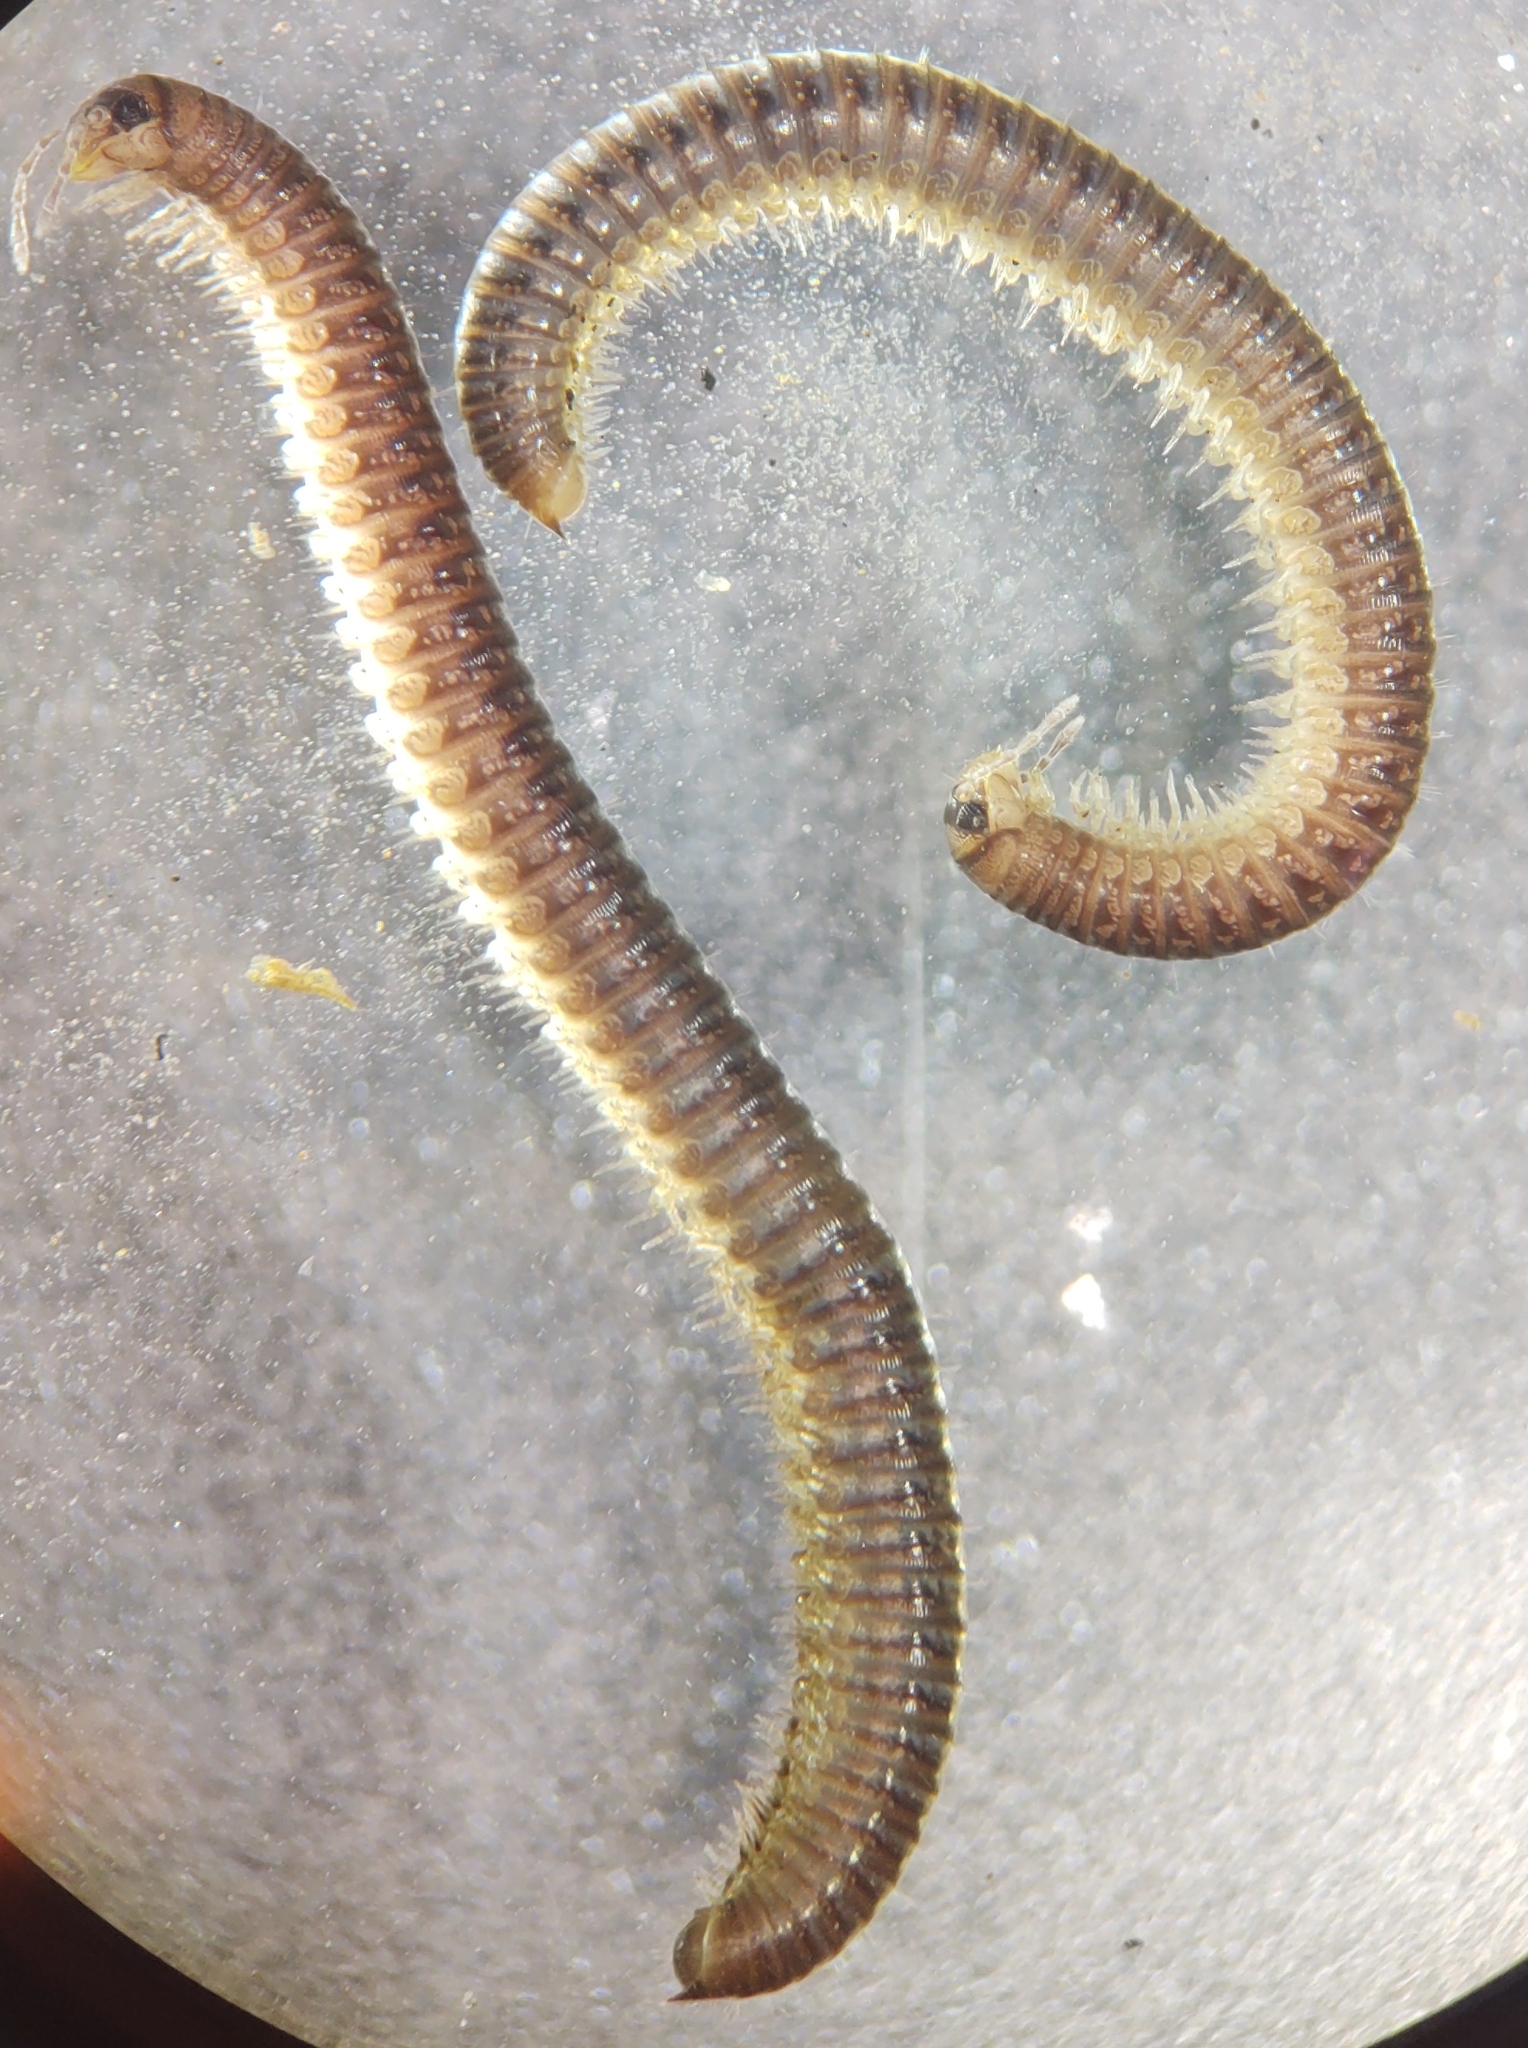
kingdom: Animalia
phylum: Arthropoda
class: Diplopoda
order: Julida
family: Julidae
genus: Ophyiulus
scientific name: Ophyiulus pilosus
